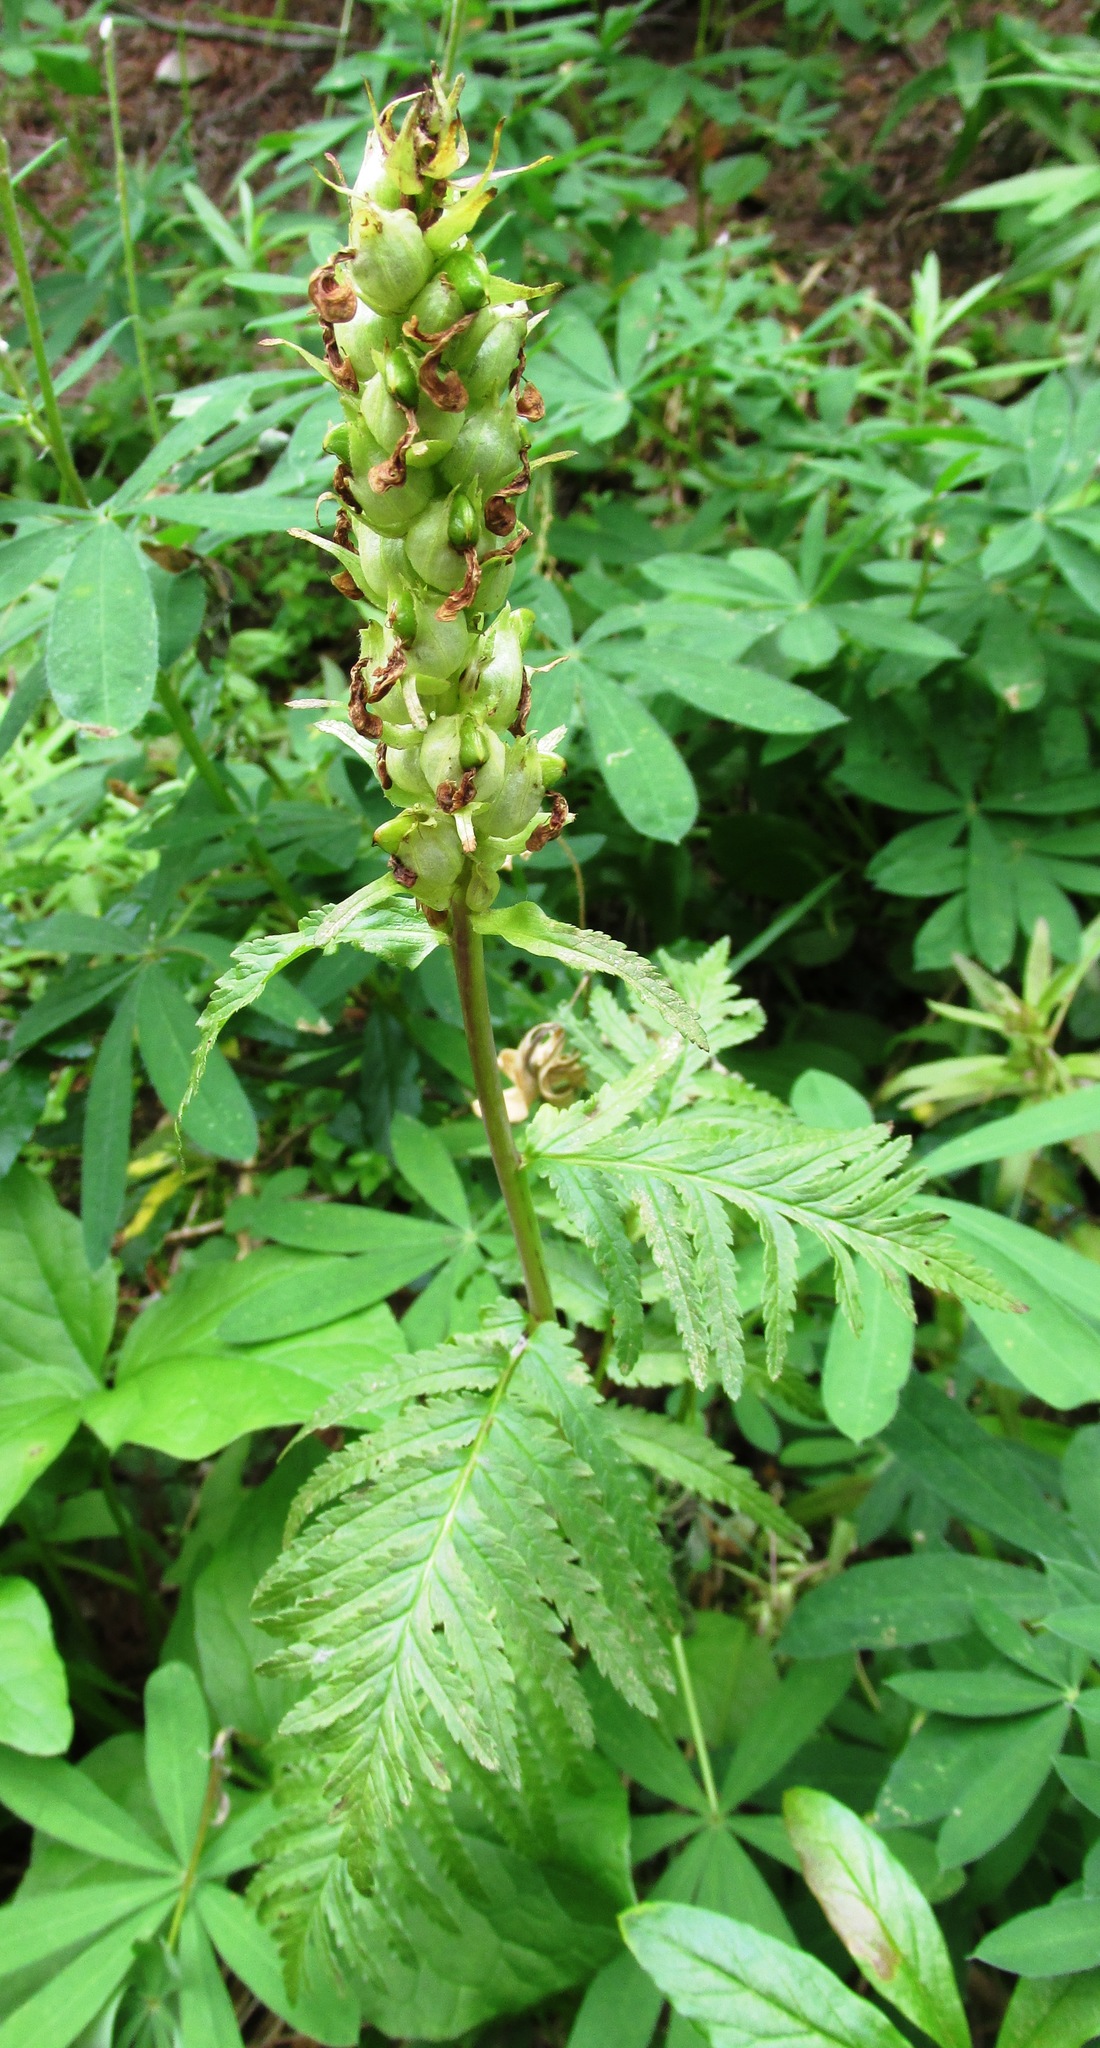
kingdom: Plantae
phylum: Tracheophyta
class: Magnoliopsida
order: Lamiales
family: Orobanchaceae
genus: Pedicularis
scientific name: Pedicularis bracteosa
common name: Bracted lousewort
